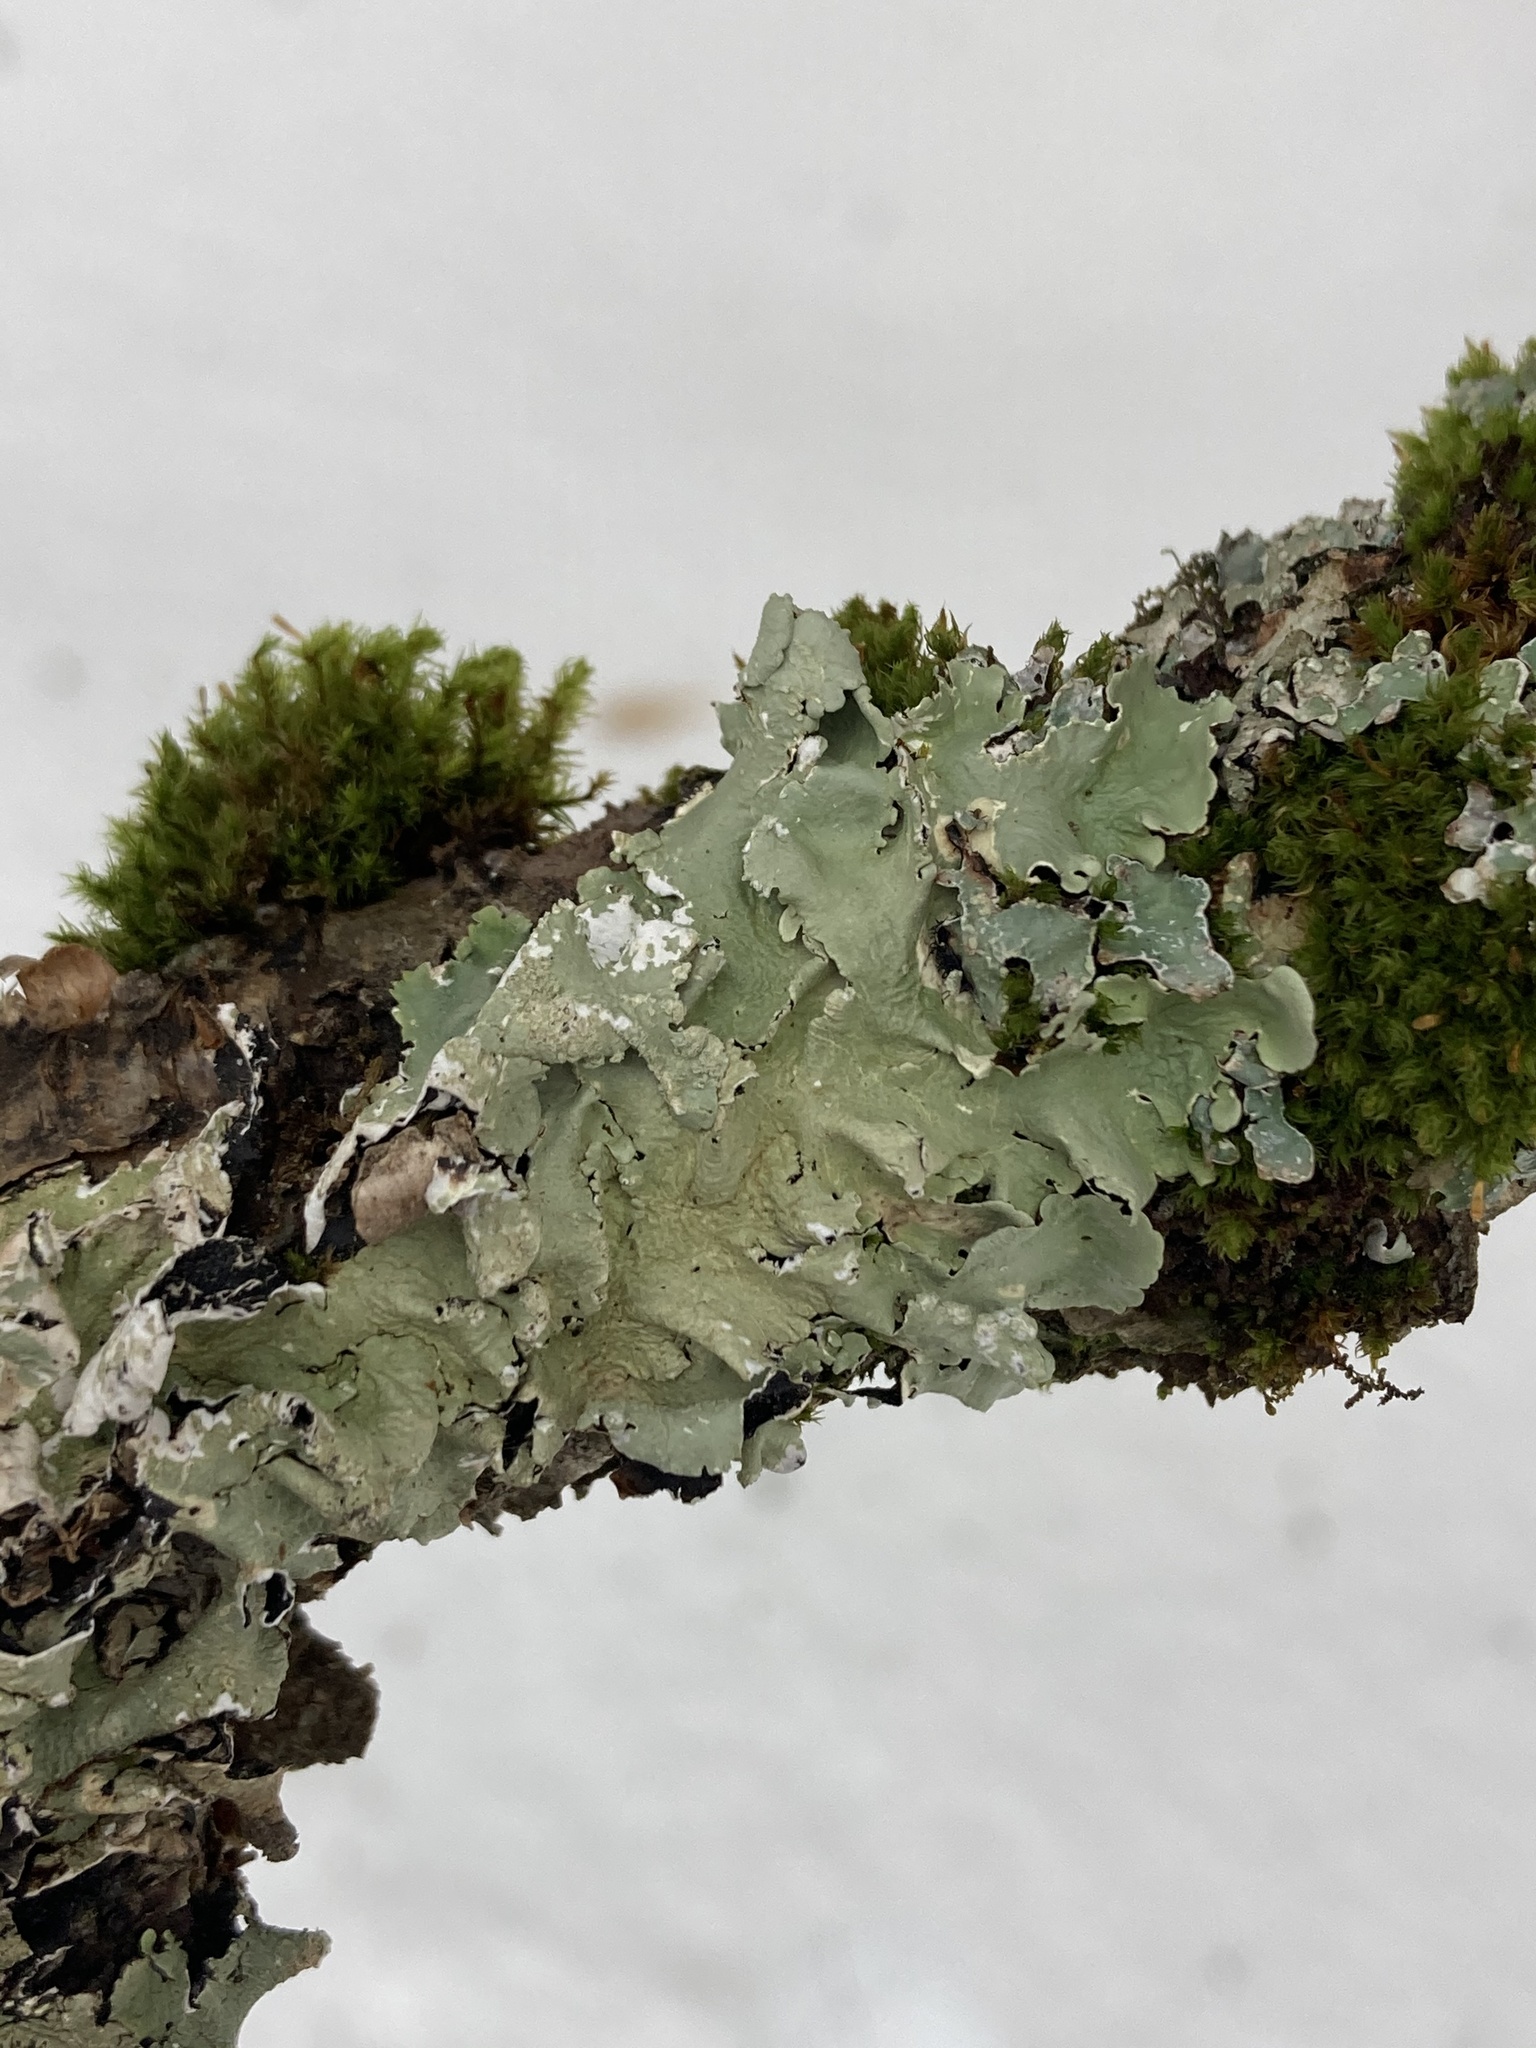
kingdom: Fungi
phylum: Ascomycota
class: Lecanoromycetes
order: Lecanorales
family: Parmeliaceae
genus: Flavoparmelia
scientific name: Flavoparmelia caperata
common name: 40-mile per hour lichen
